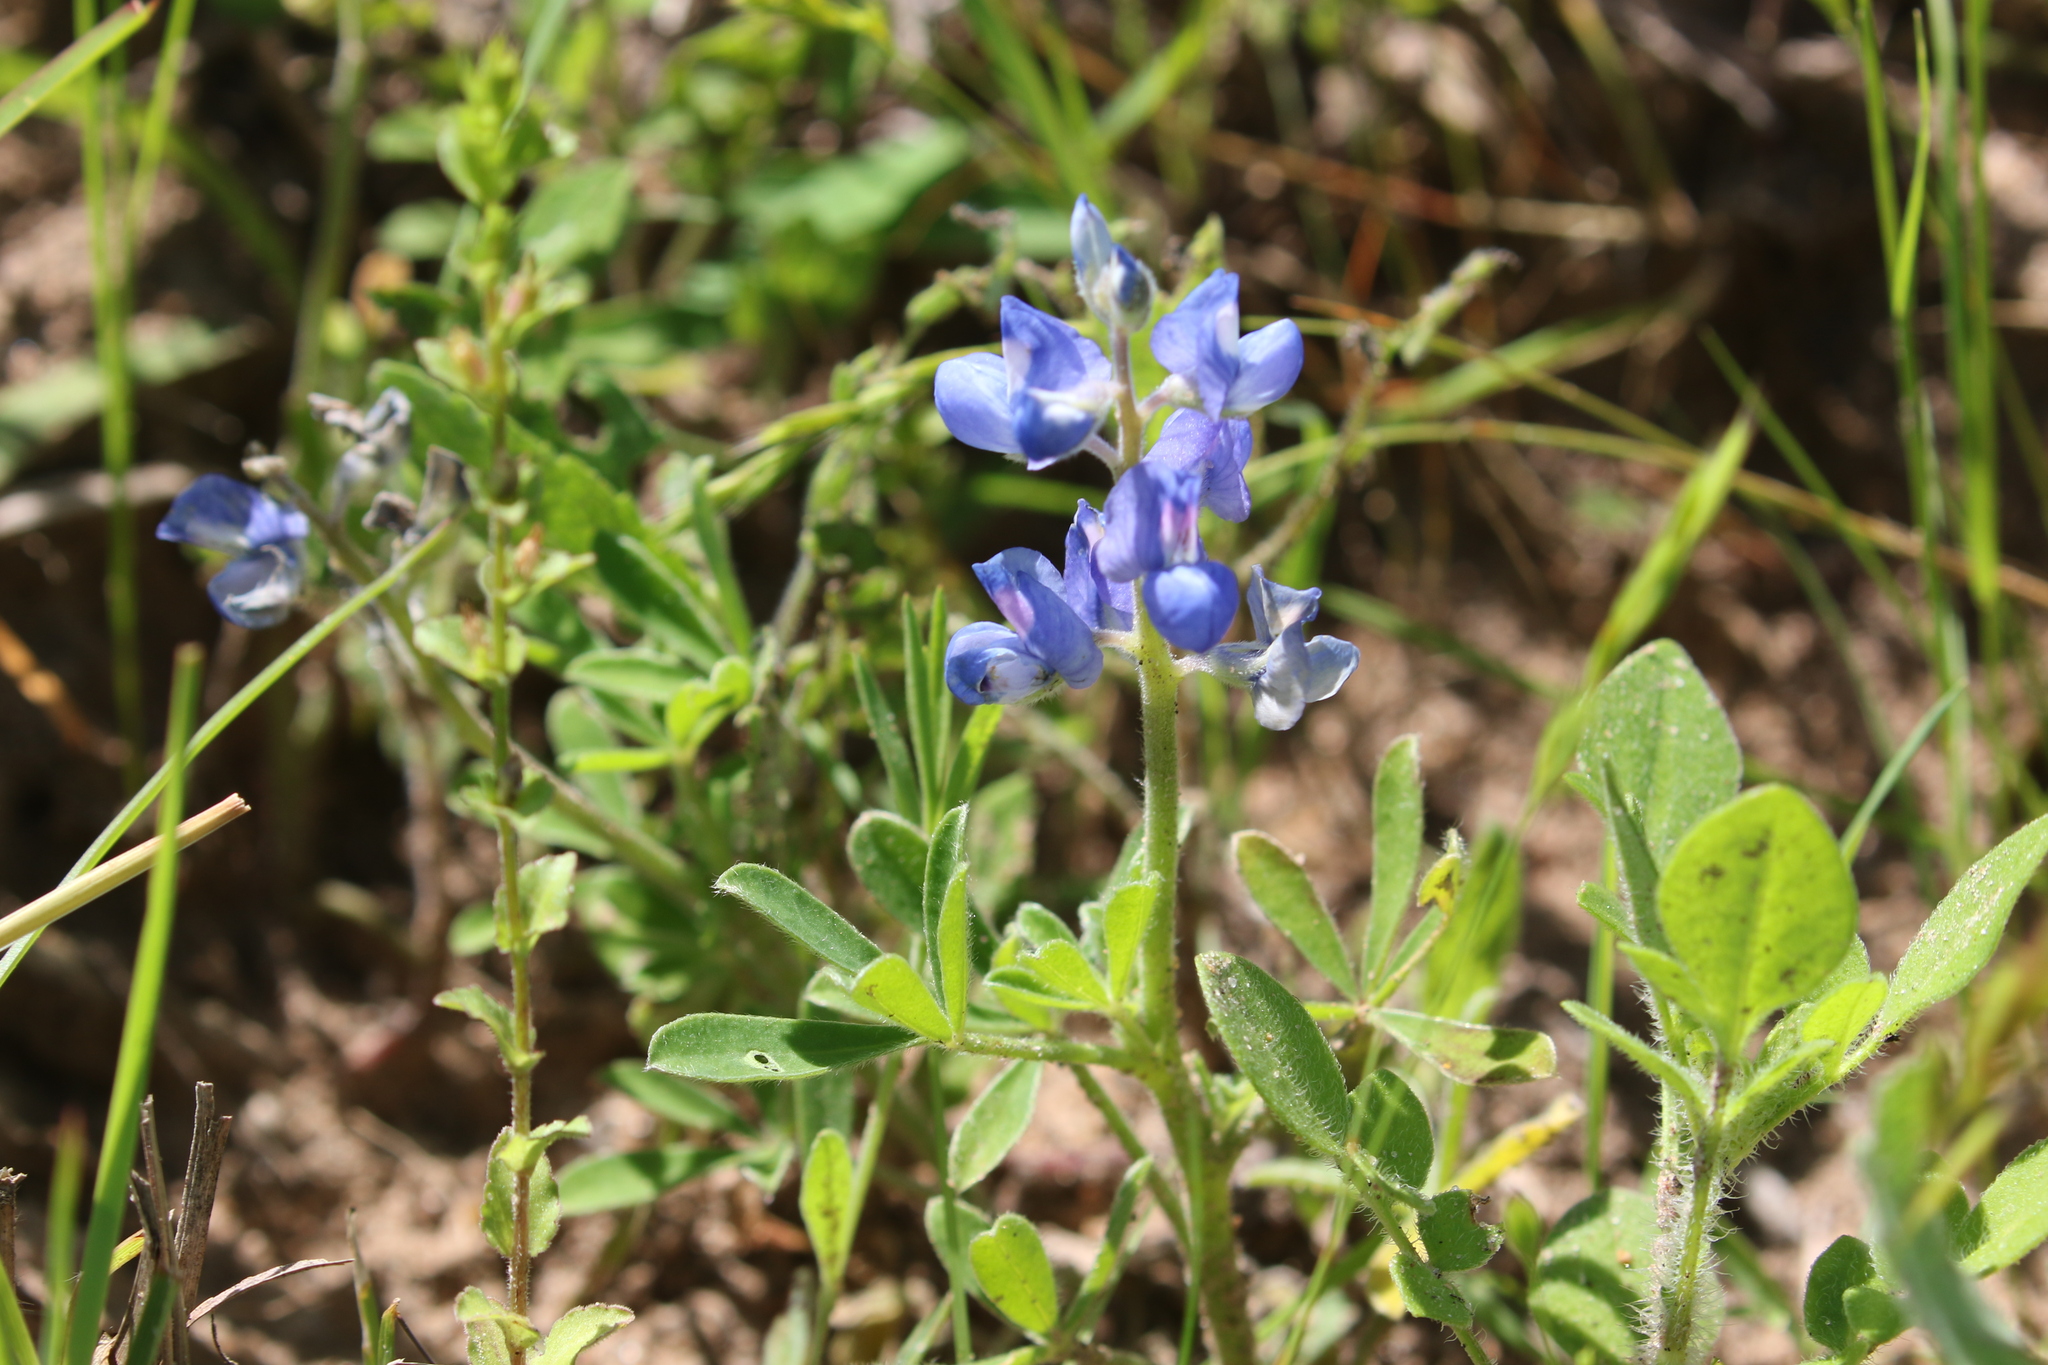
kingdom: Plantae
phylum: Tracheophyta
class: Magnoliopsida
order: Fabales
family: Fabaceae
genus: Lupinus
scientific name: Lupinus subcarnosus
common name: Texas bluebonnet
